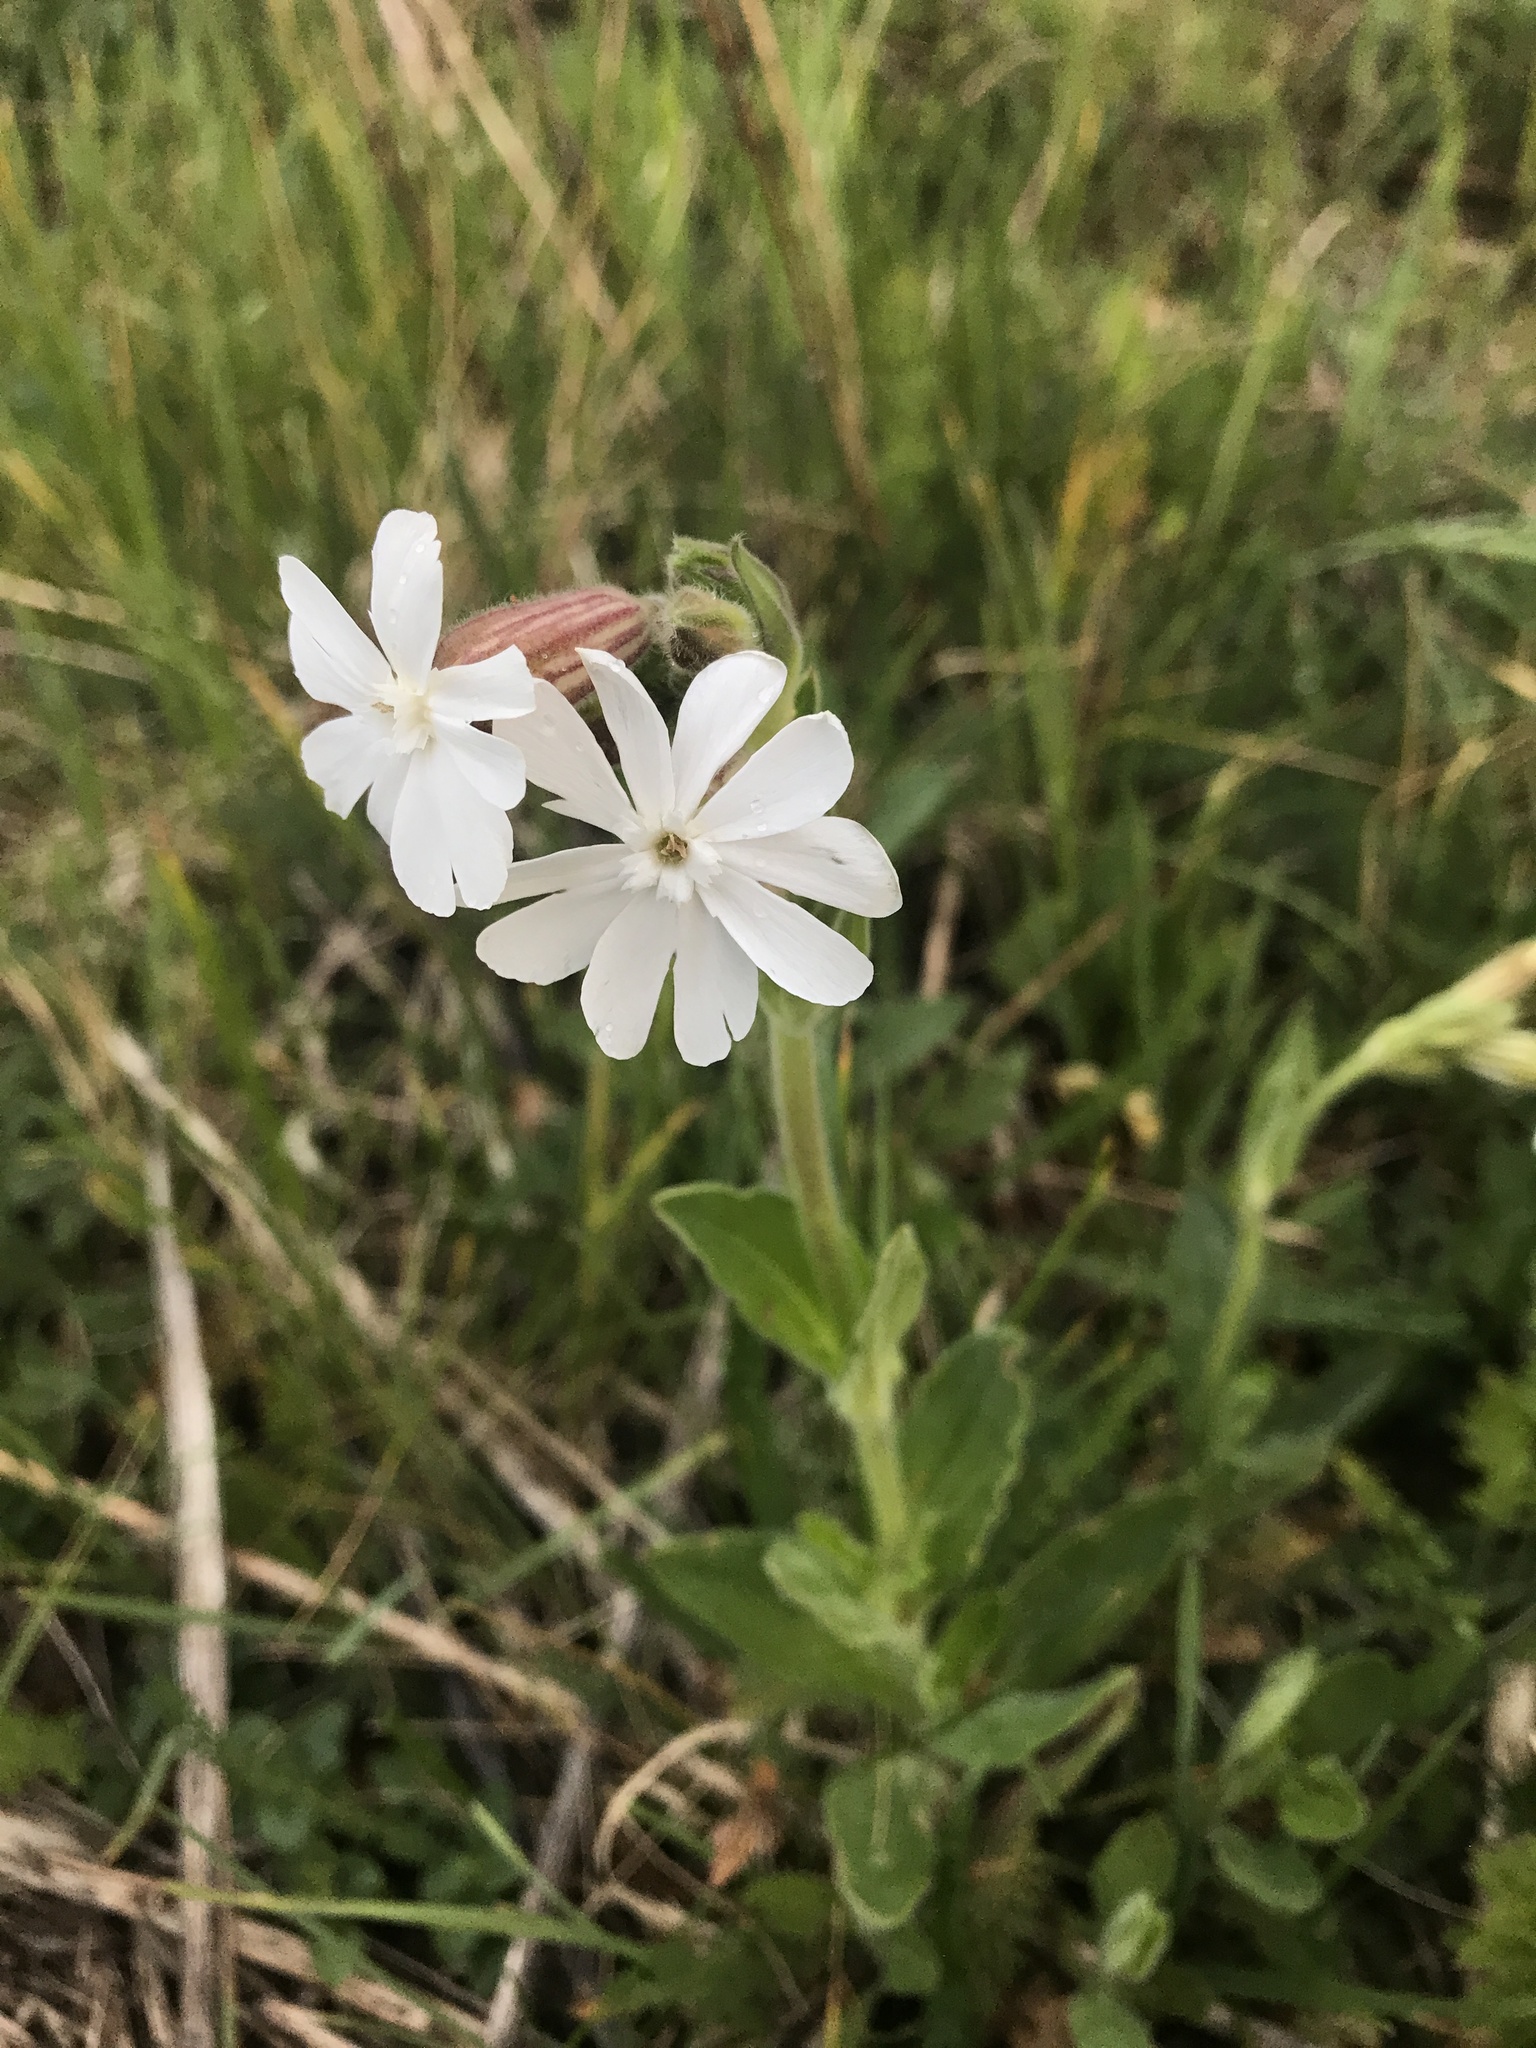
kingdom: Plantae
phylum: Tracheophyta
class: Magnoliopsida
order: Caryophyllales
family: Caryophyllaceae
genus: Silene
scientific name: Silene latifolia
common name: White campion
